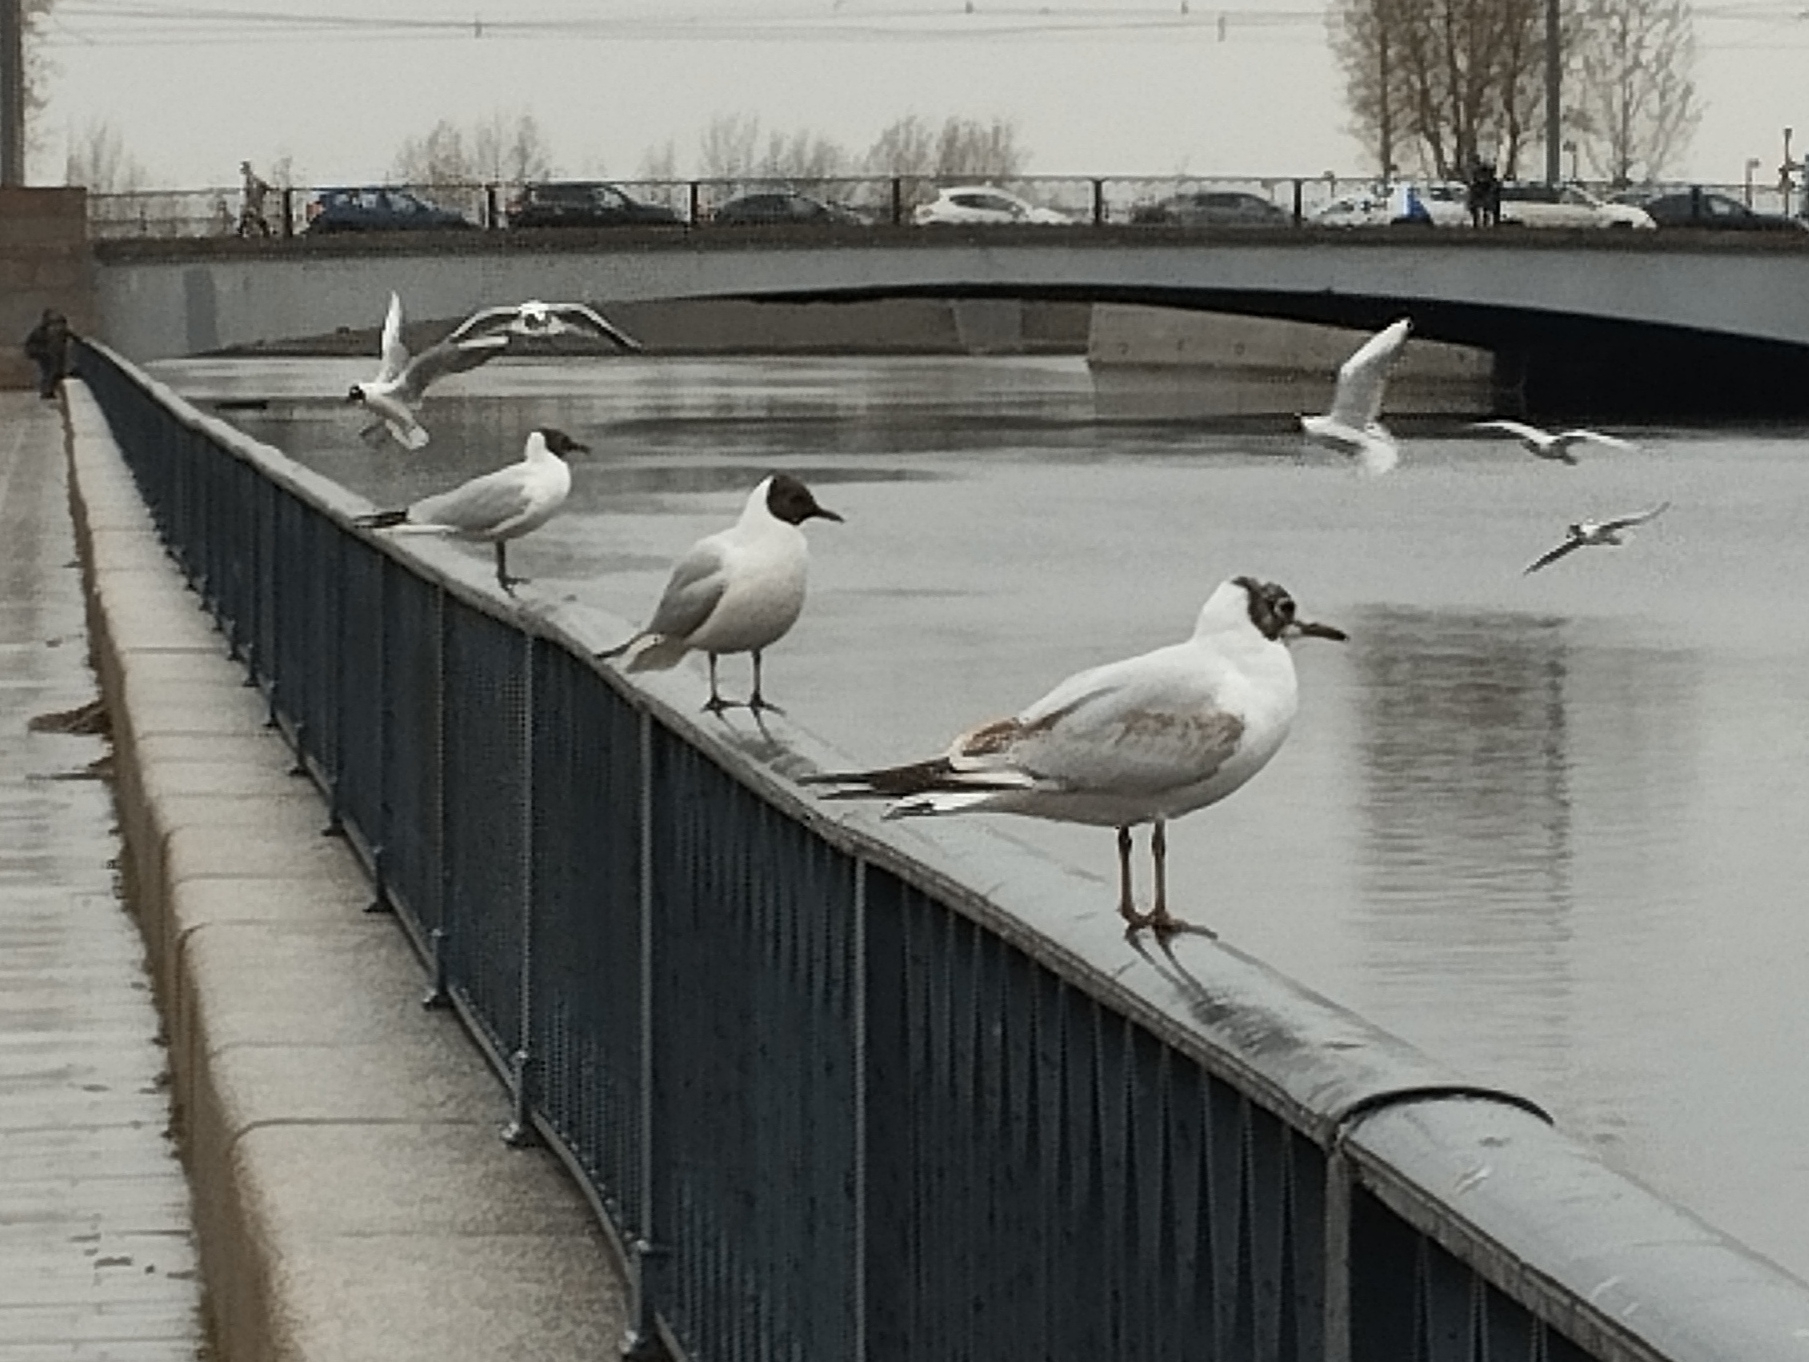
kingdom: Animalia
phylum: Chordata
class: Aves
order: Charadriiformes
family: Laridae
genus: Chroicocephalus
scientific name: Chroicocephalus ridibundus
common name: Black-headed gull
